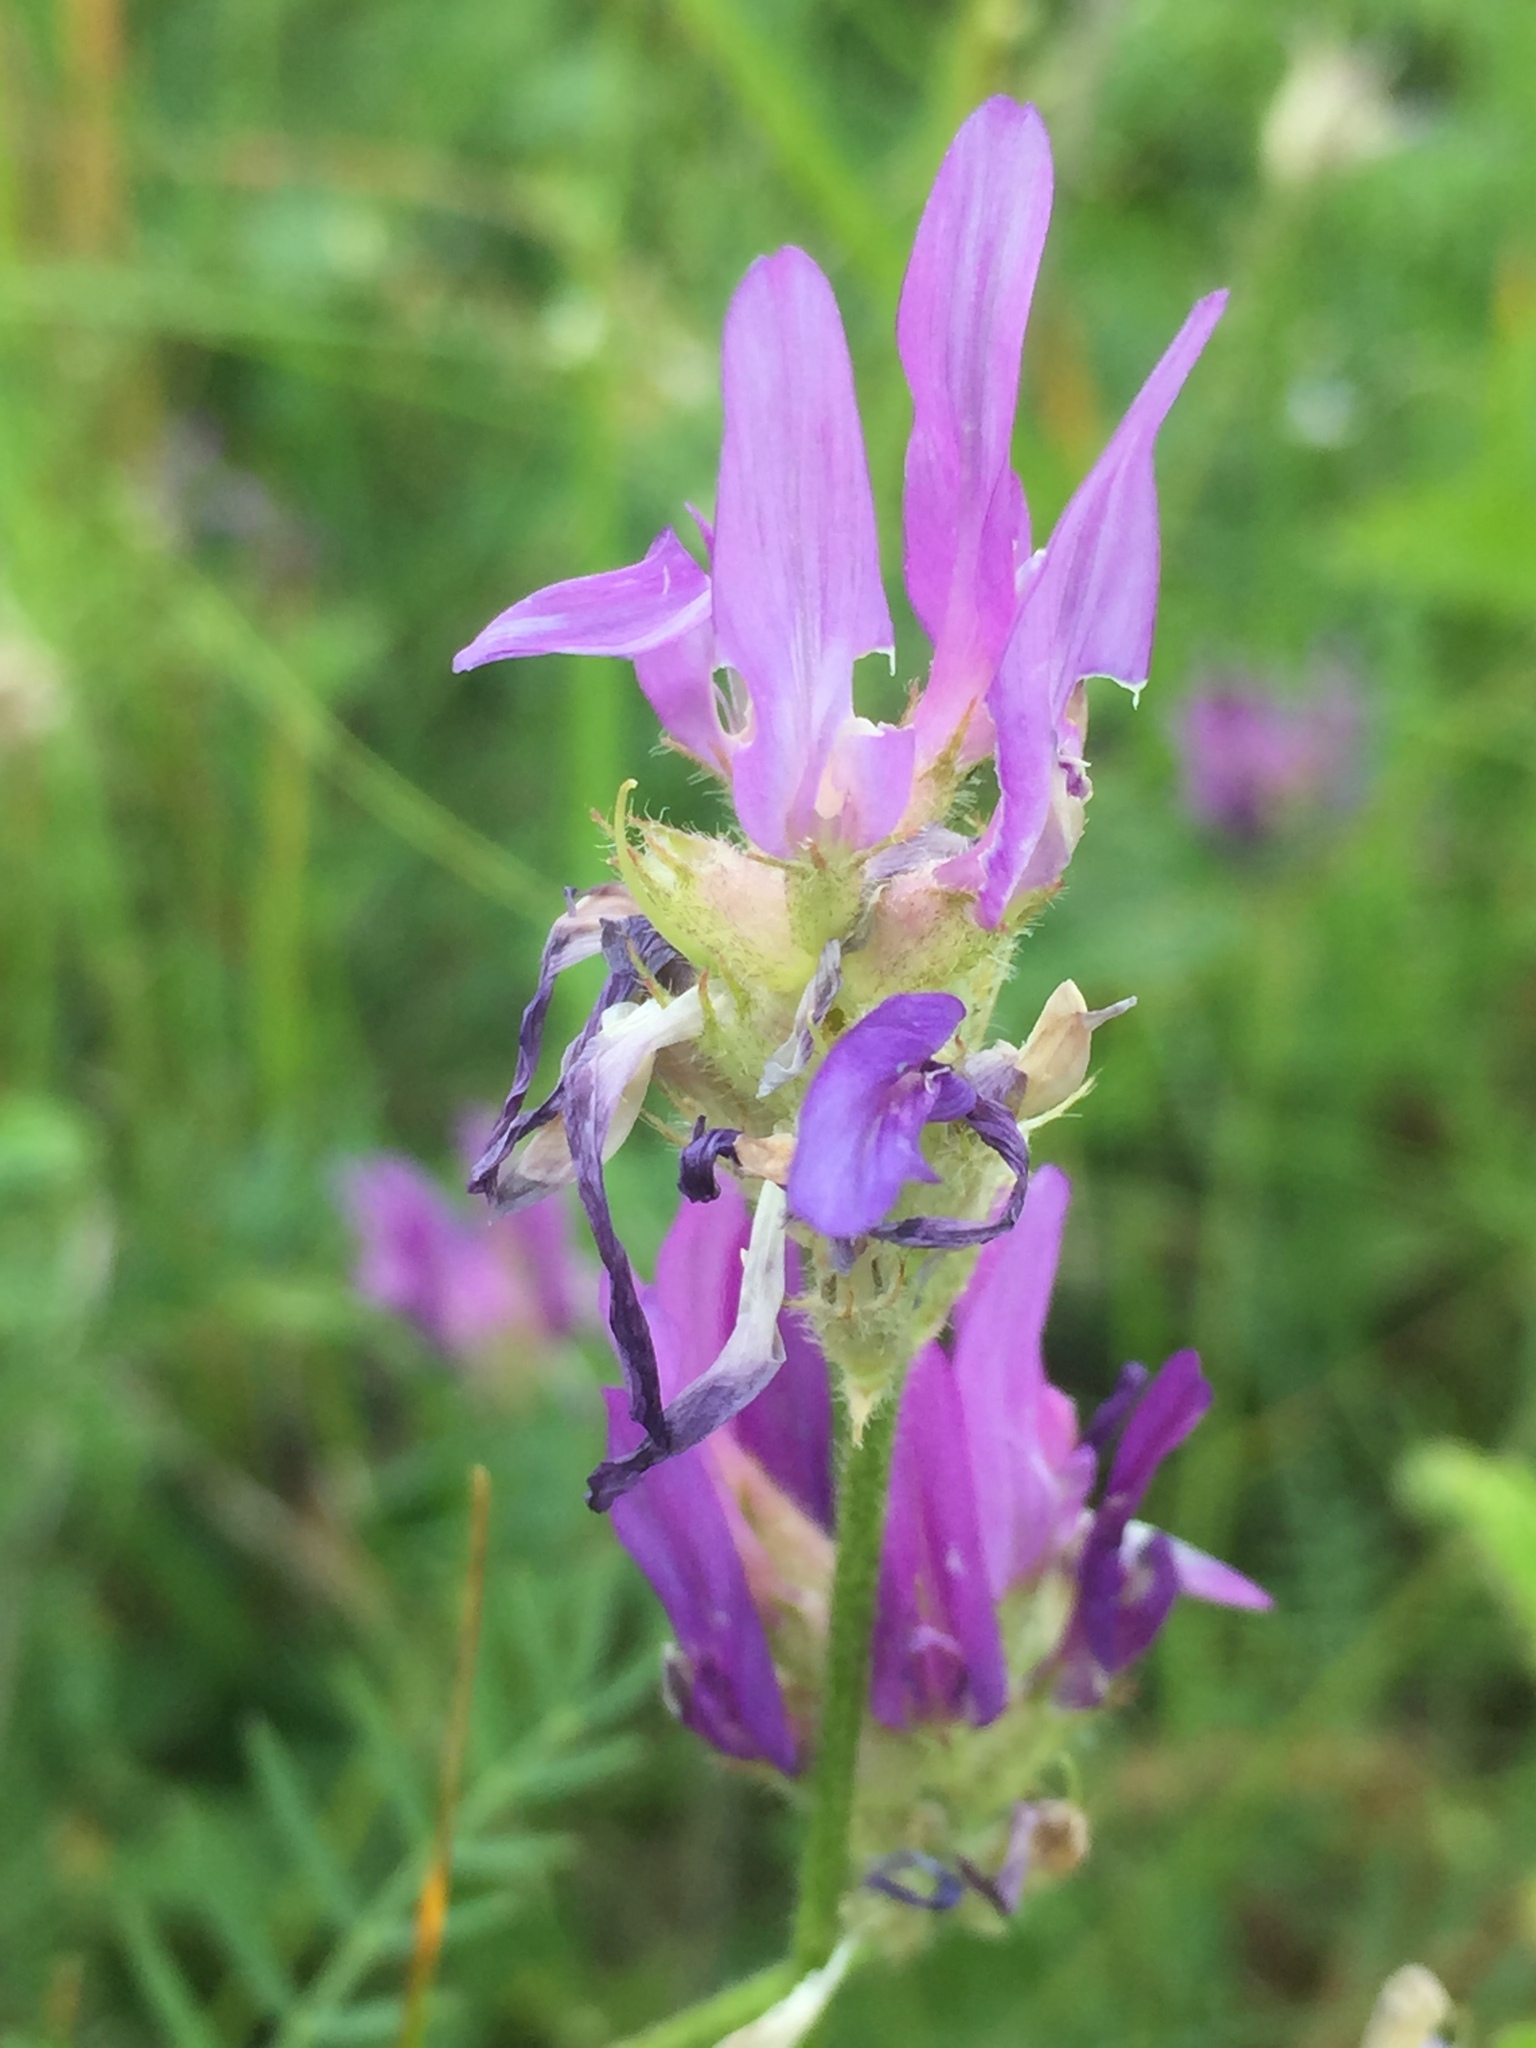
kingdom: Plantae
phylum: Tracheophyta
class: Magnoliopsida
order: Fabales
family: Fabaceae
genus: Astragalus
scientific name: Astragalus onobrychis
